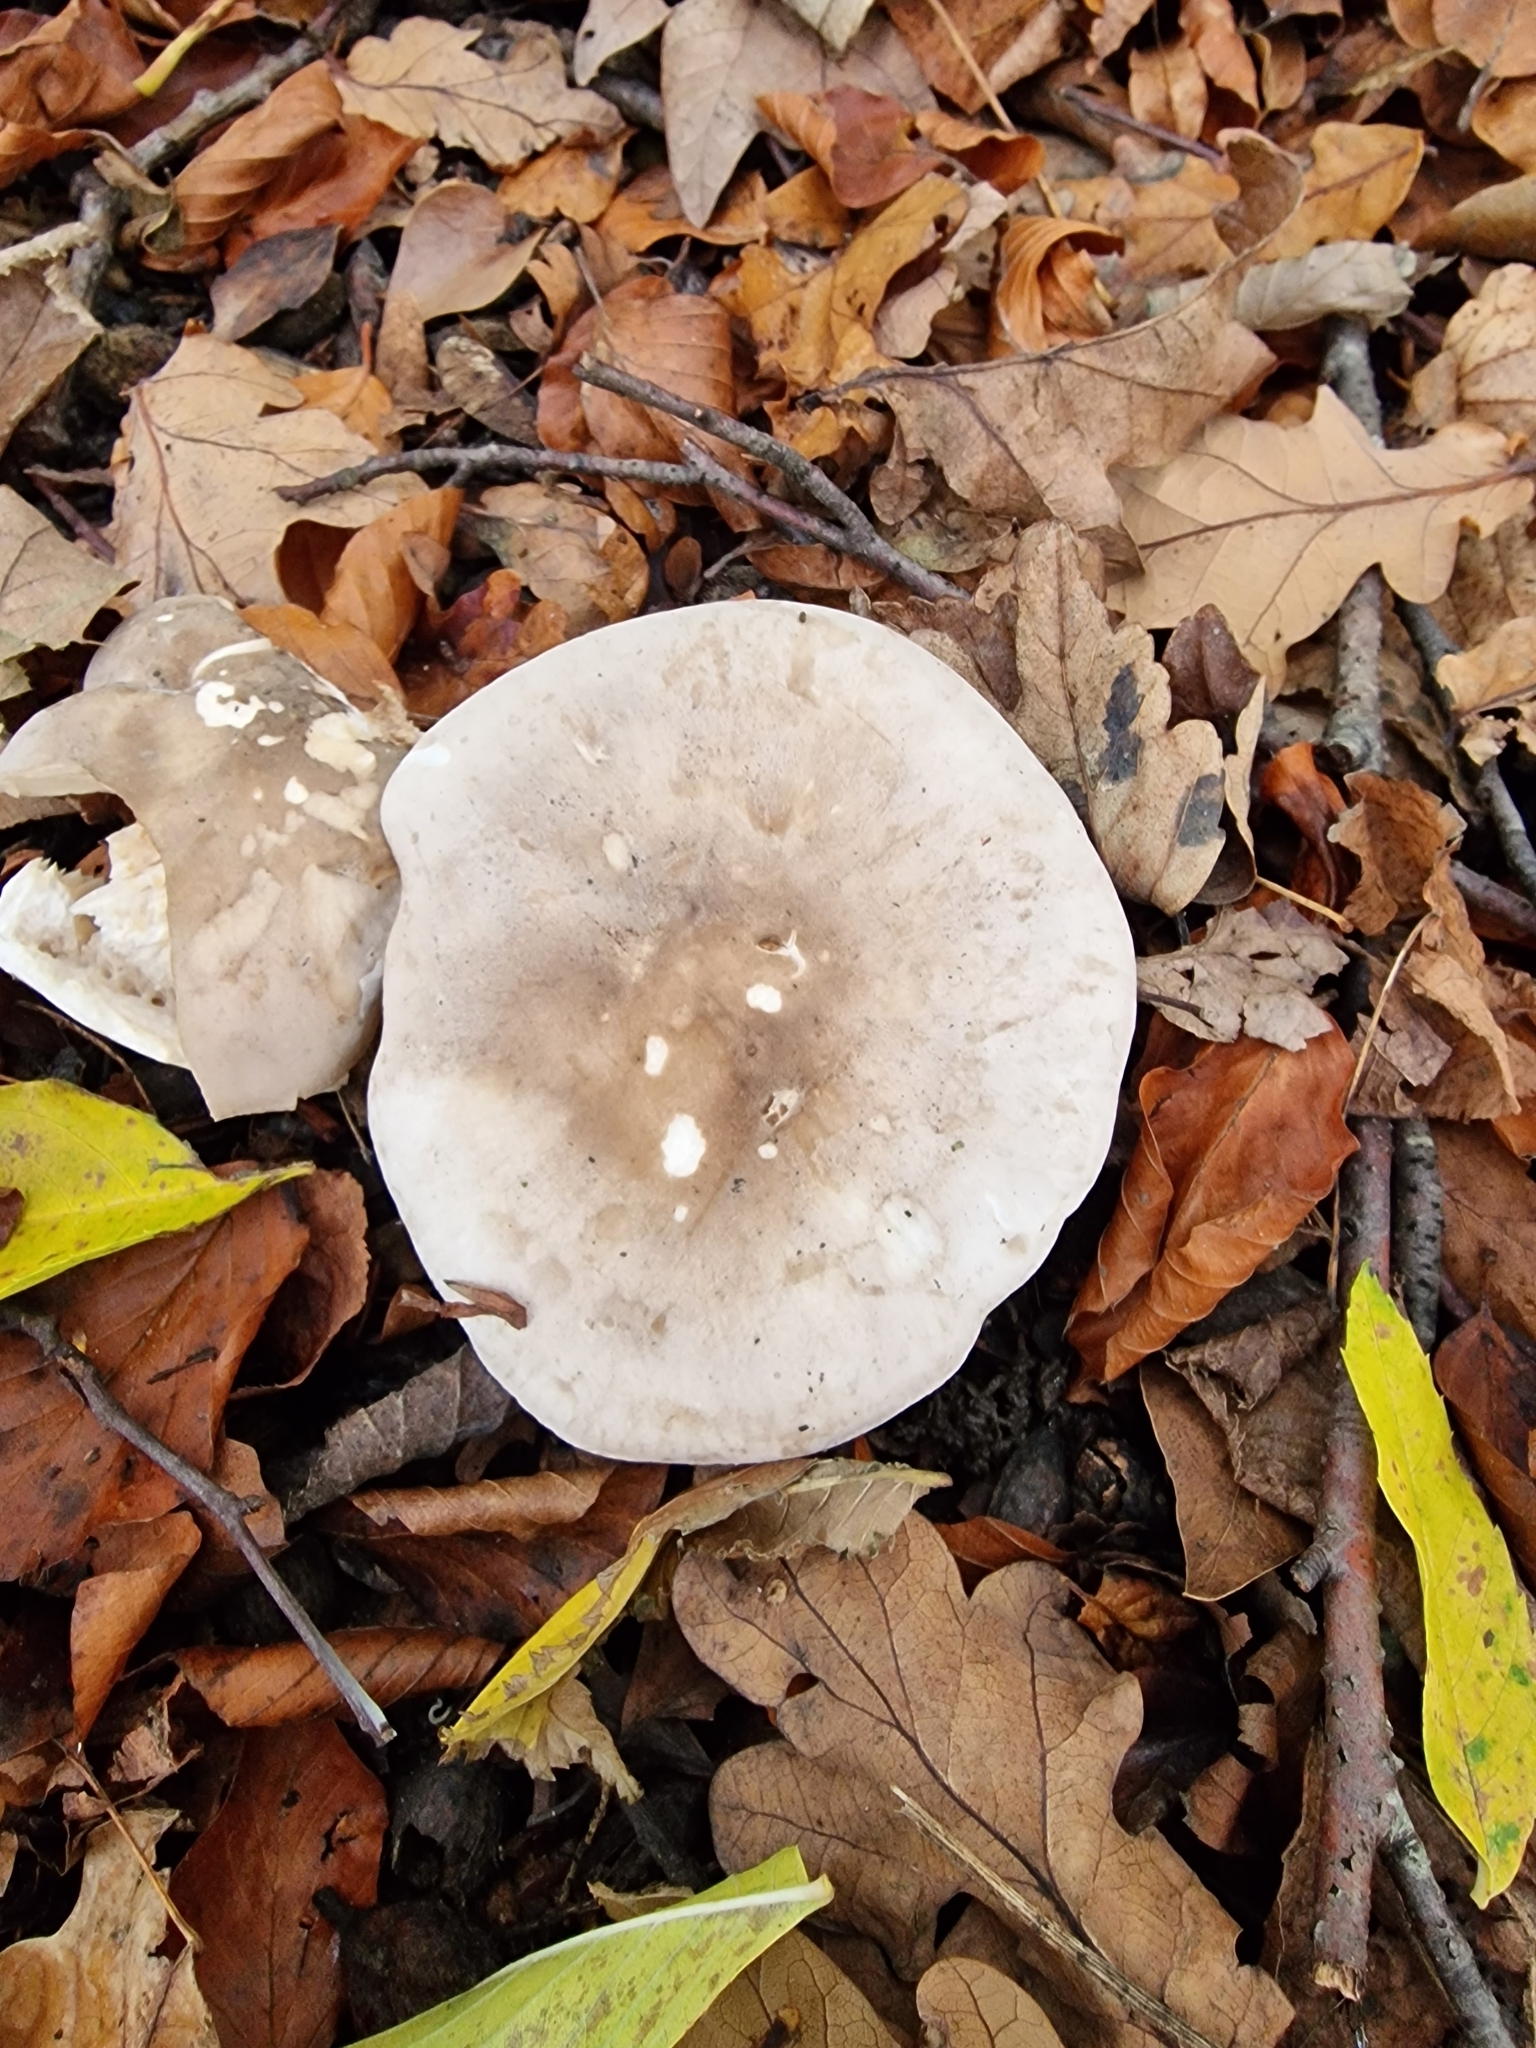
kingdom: Fungi
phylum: Basidiomycota
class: Agaricomycetes
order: Agaricales
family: Tricholomataceae
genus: Clitocybe
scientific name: Clitocybe nebularis
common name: Clouded agaric
